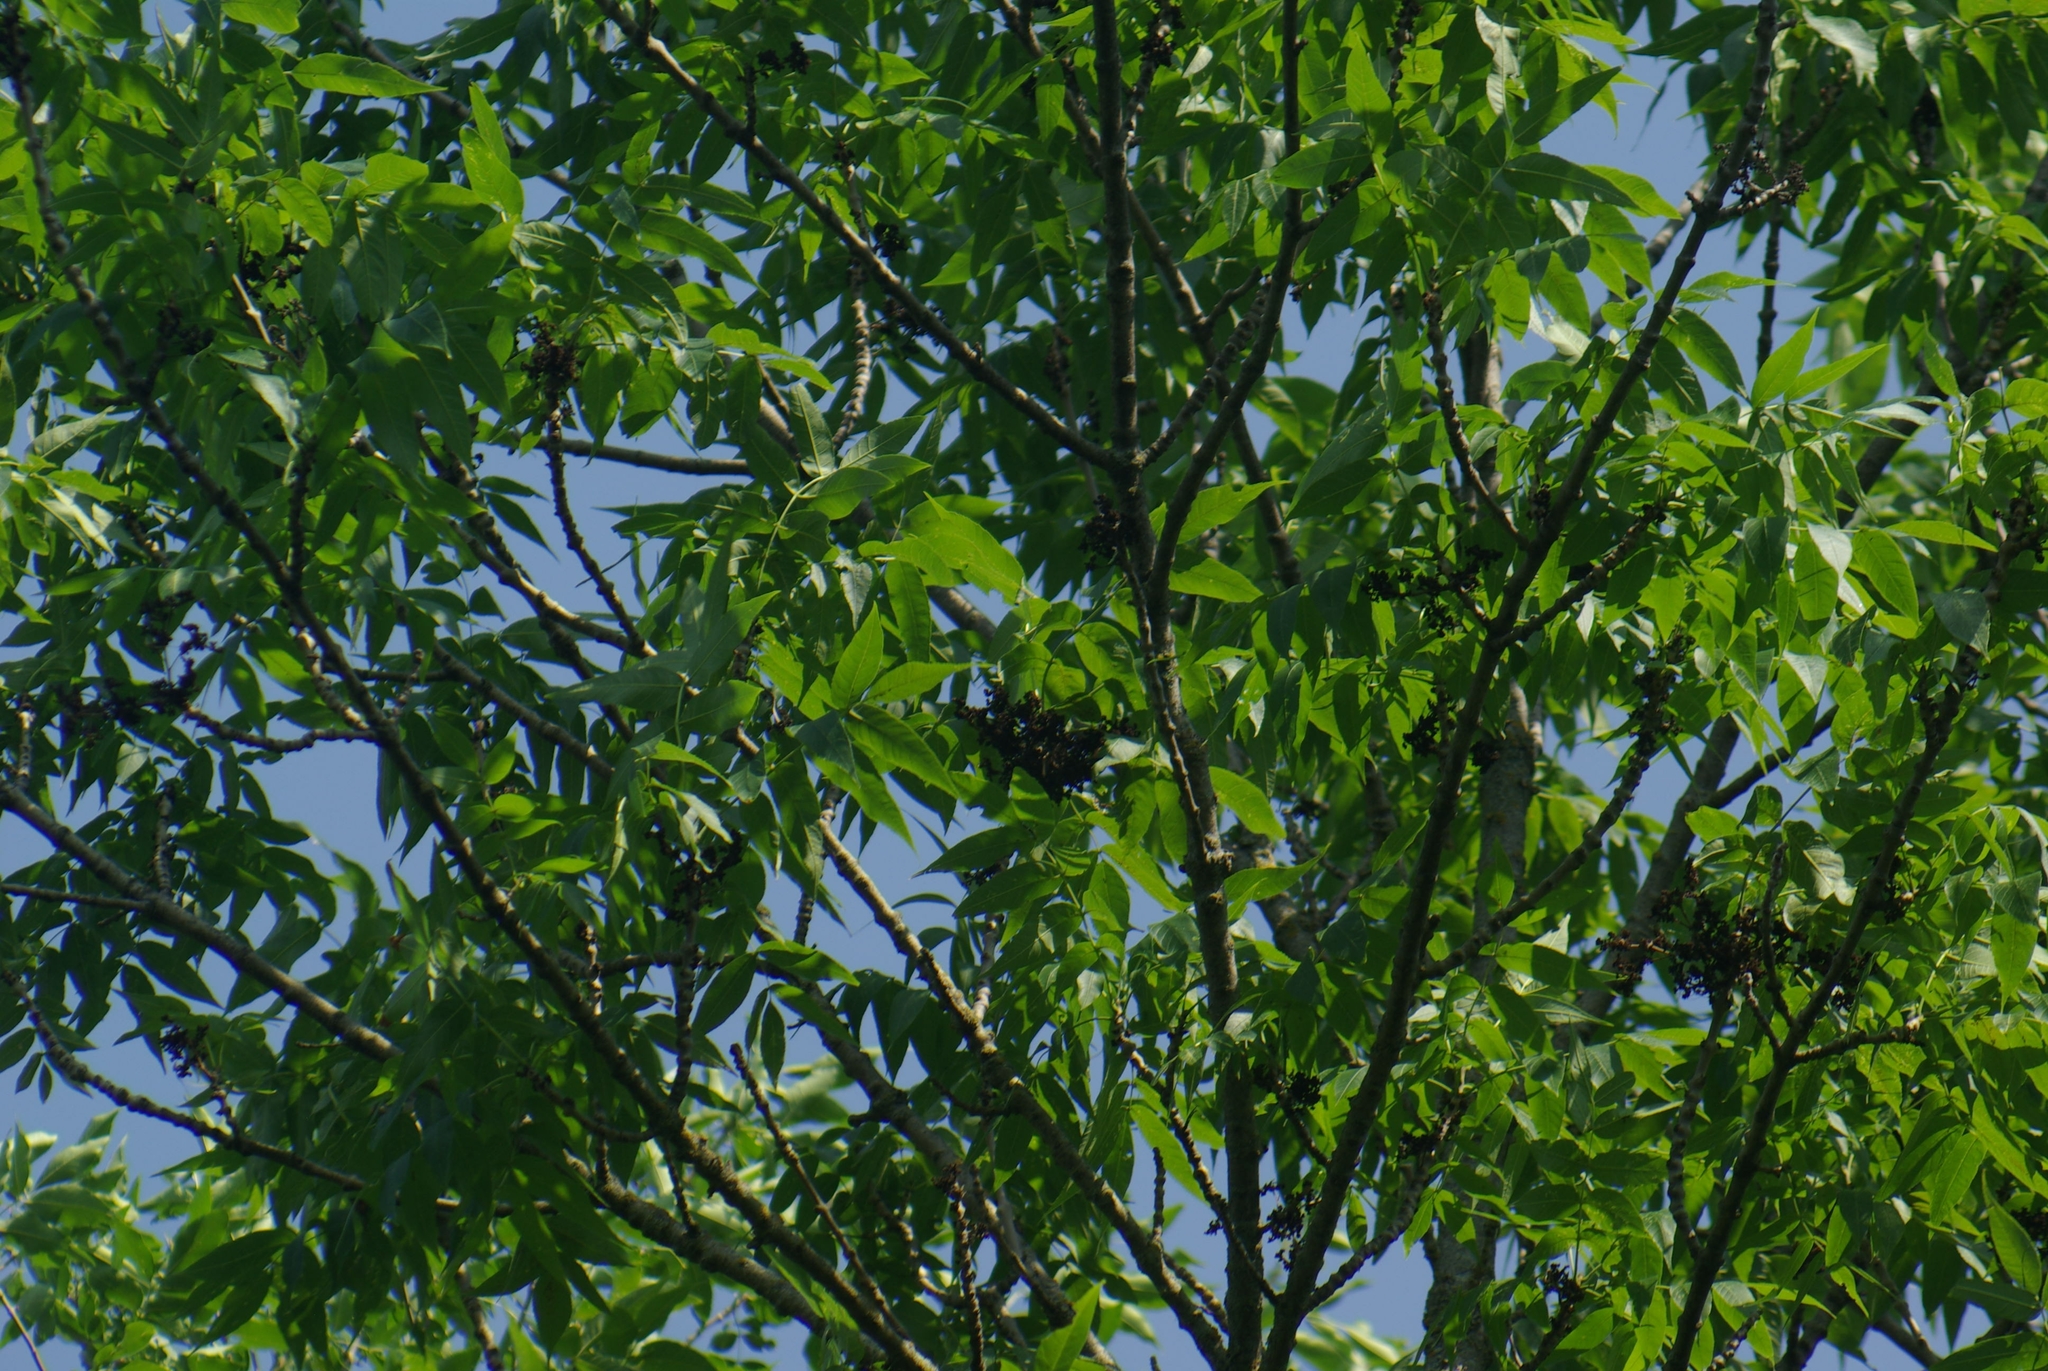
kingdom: Plantae
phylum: Tracheophyta
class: Magnoliopsida
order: Lamiales
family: Oleaceae
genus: Fraxinus
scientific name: Fraxinus pennsylvanica
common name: Green ash
